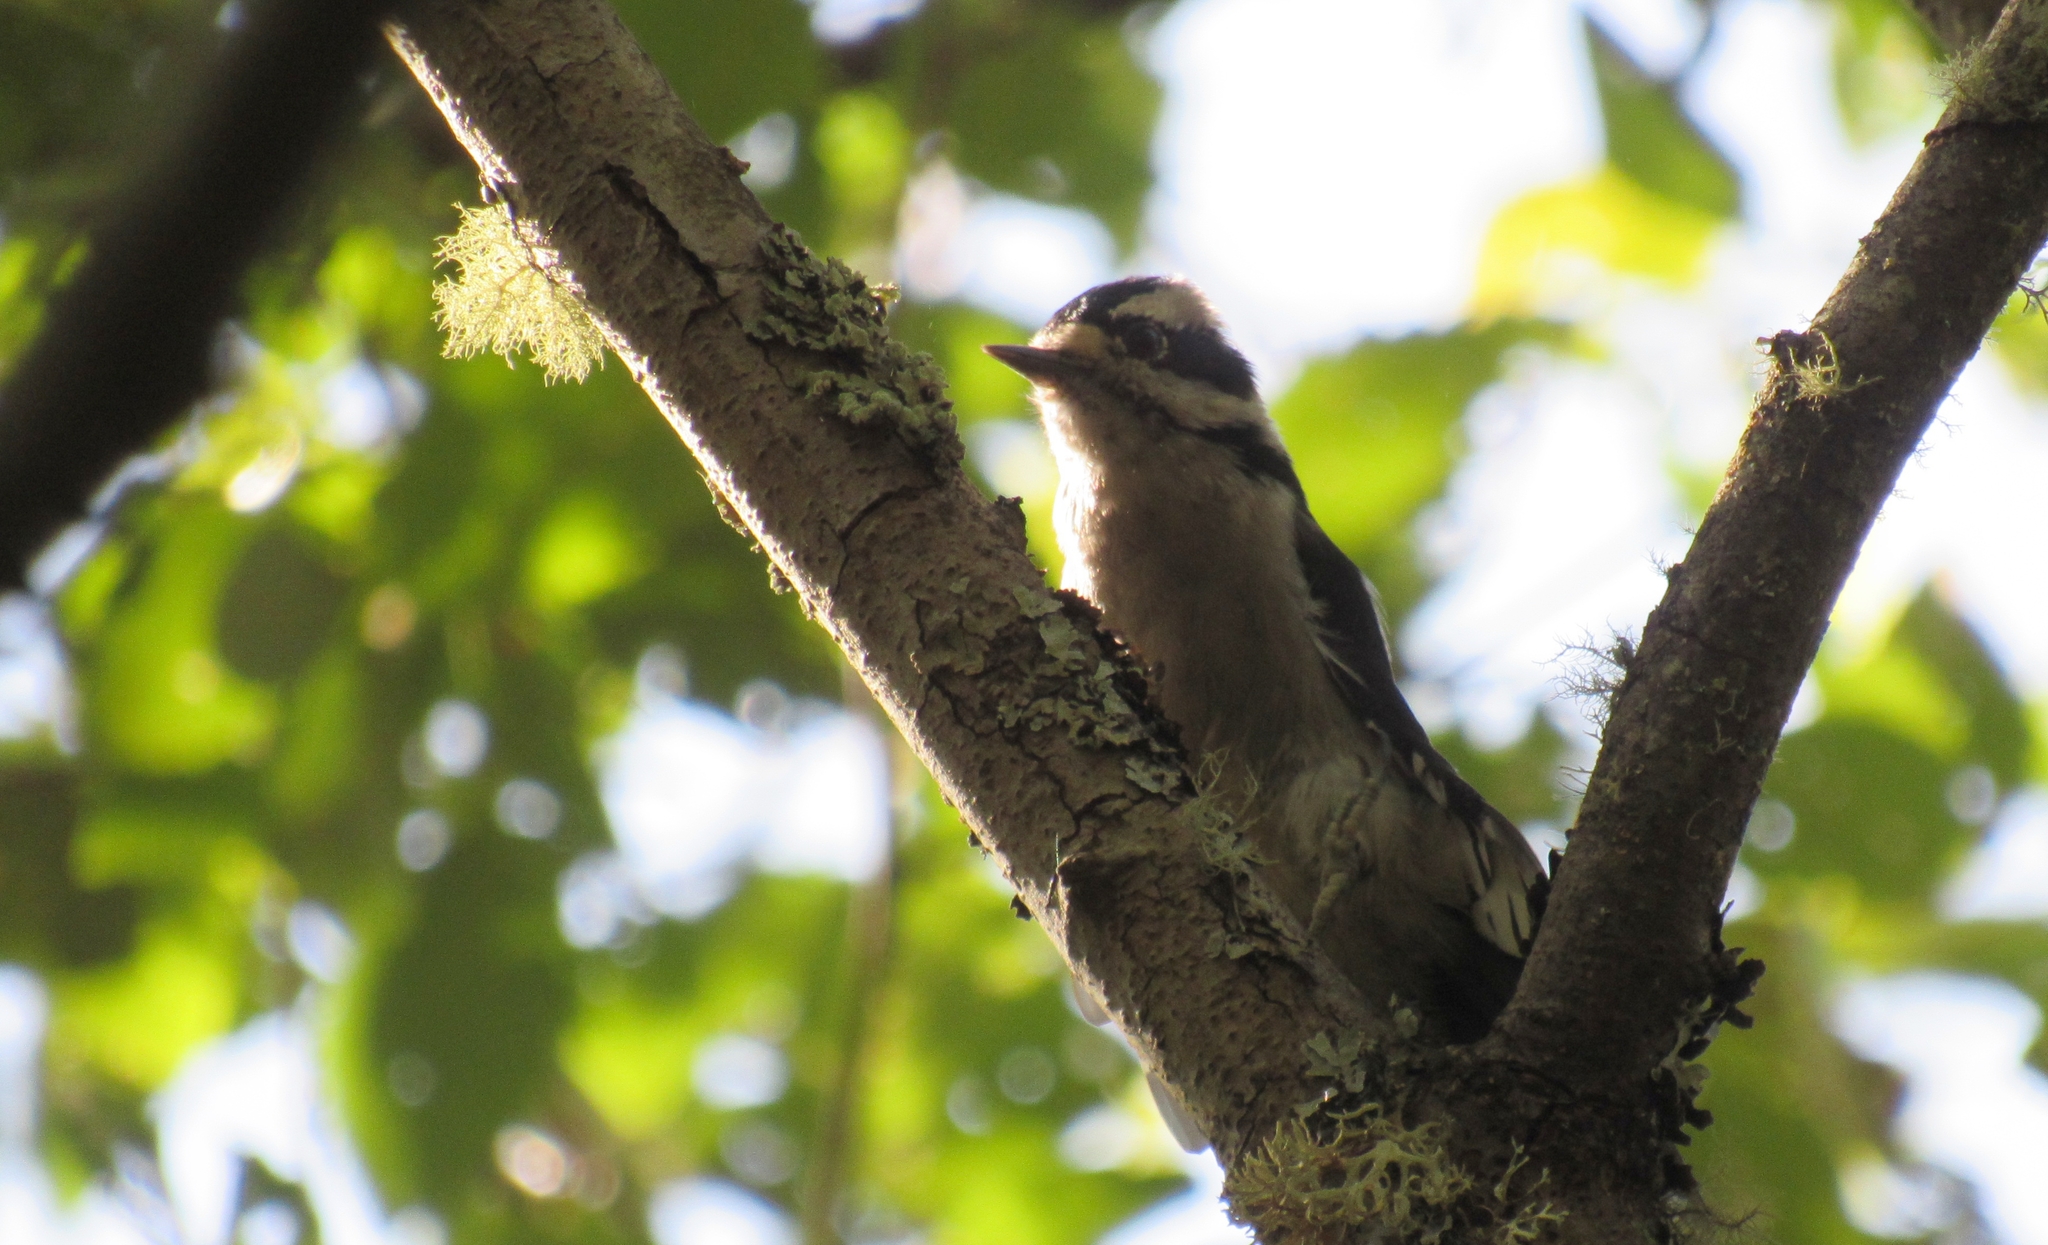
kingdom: Animalia
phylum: Chordata
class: Aves
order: Piciformes
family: Picidae
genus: Dryobates
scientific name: Dryobates pubescens
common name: Downy woodpecker
